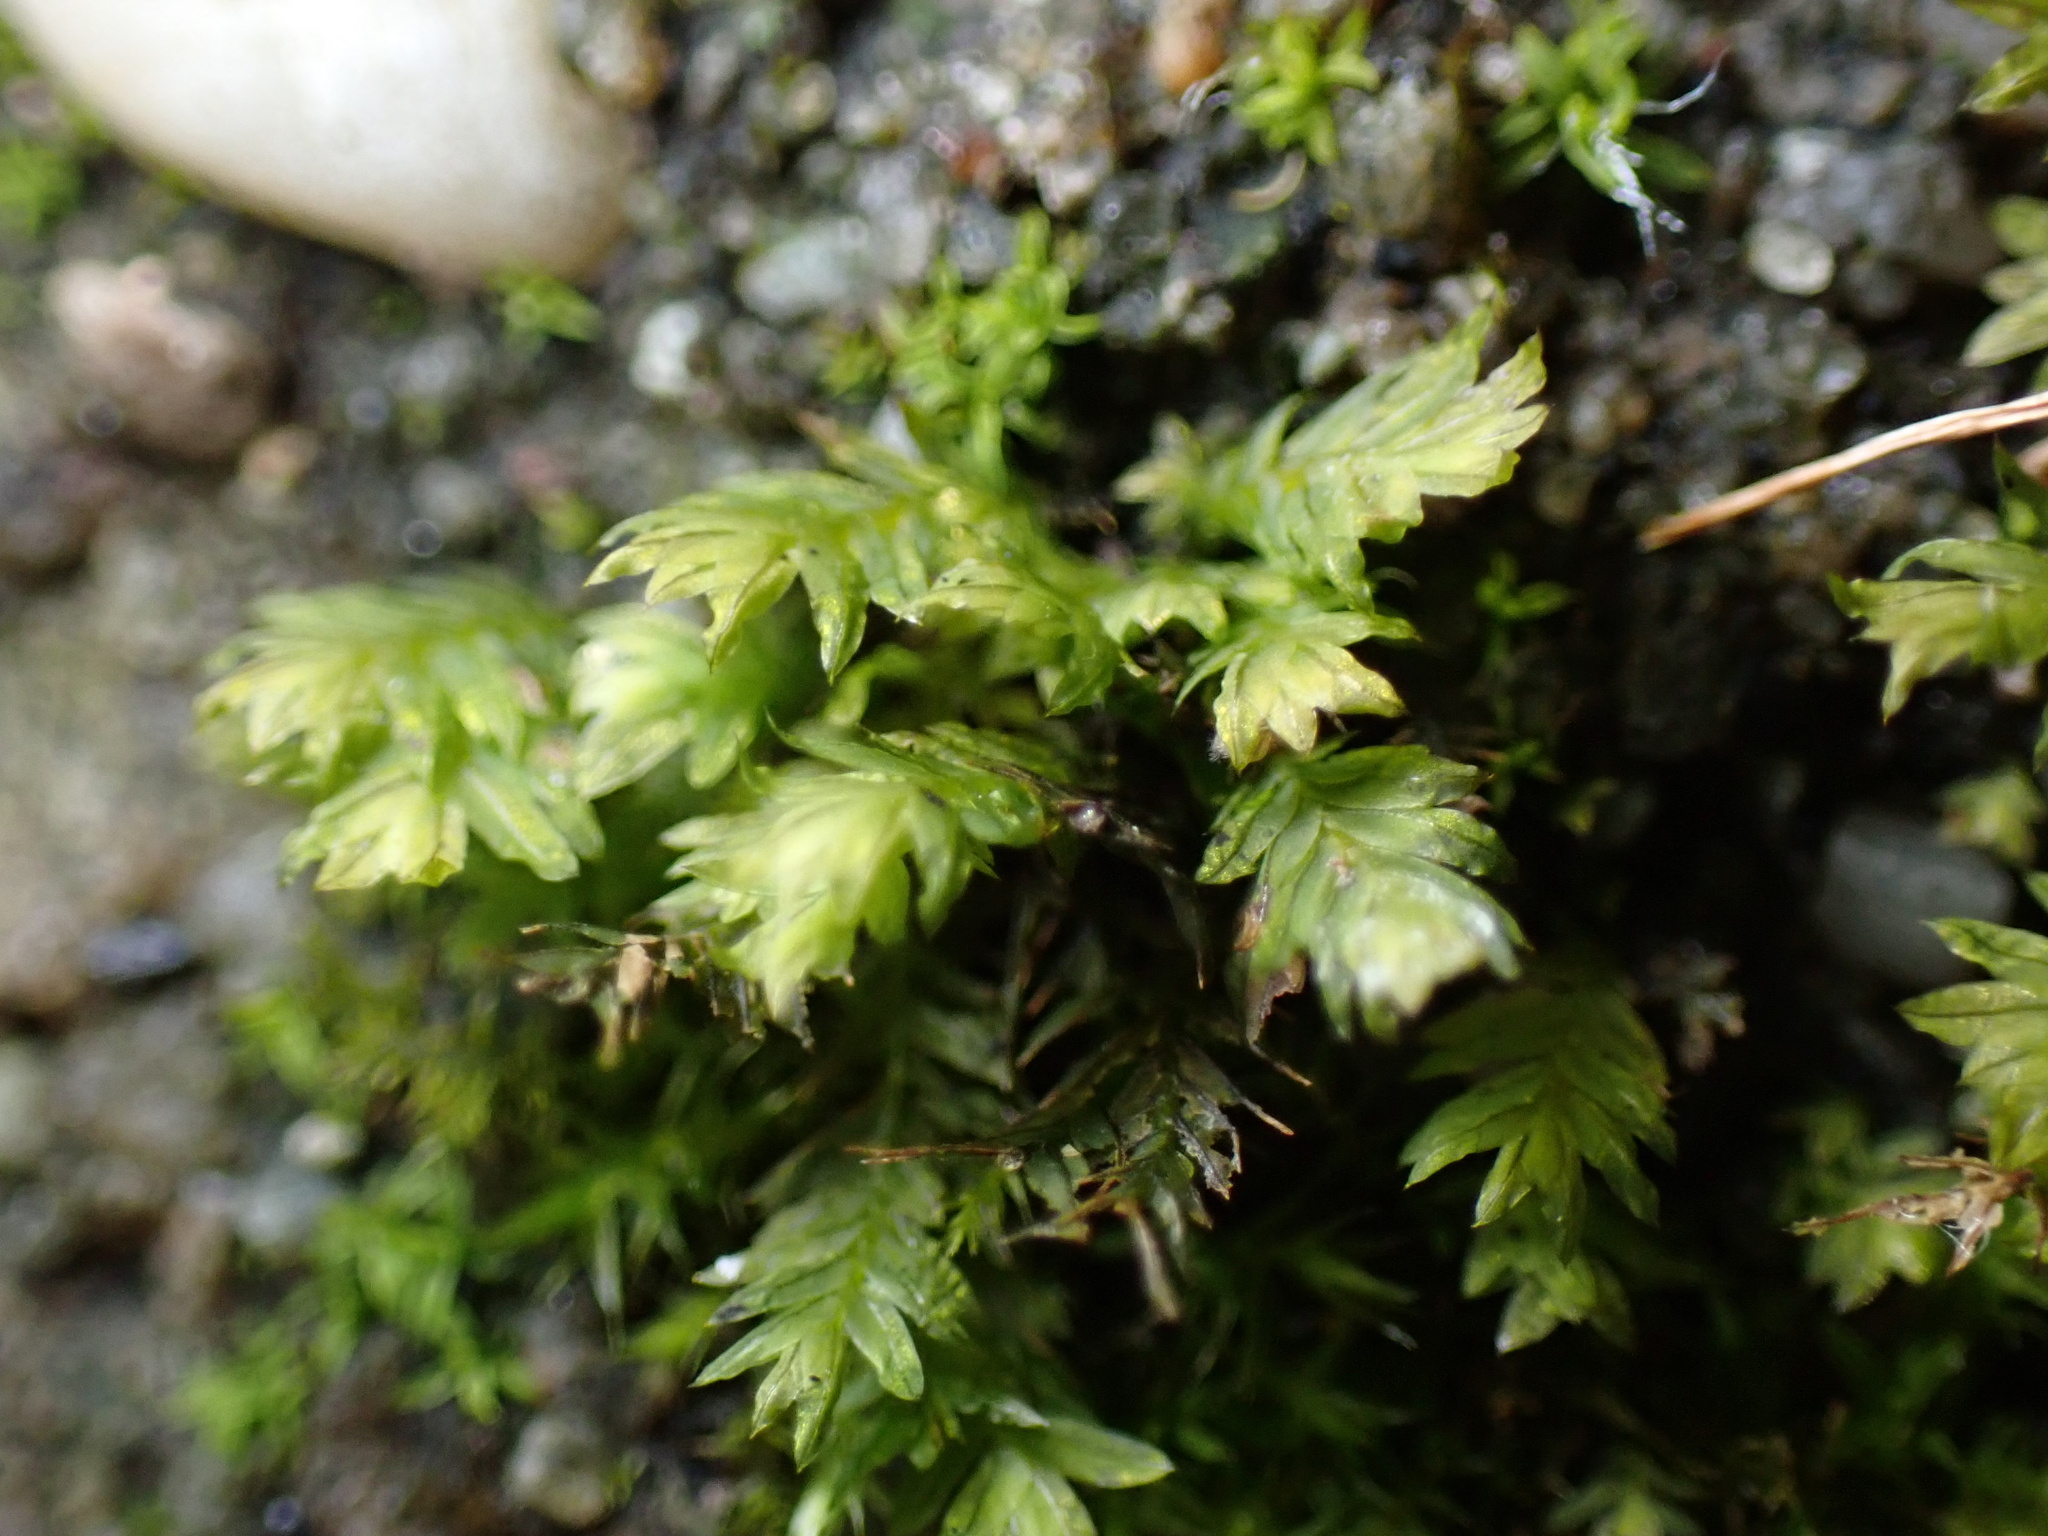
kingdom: Plantae
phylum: Bryophyta
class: Bryopsida
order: Dicranales
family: Fissidentaceae
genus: Fissidens
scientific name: Fissidens taxifolius
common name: Yew-leaved pocket moss
